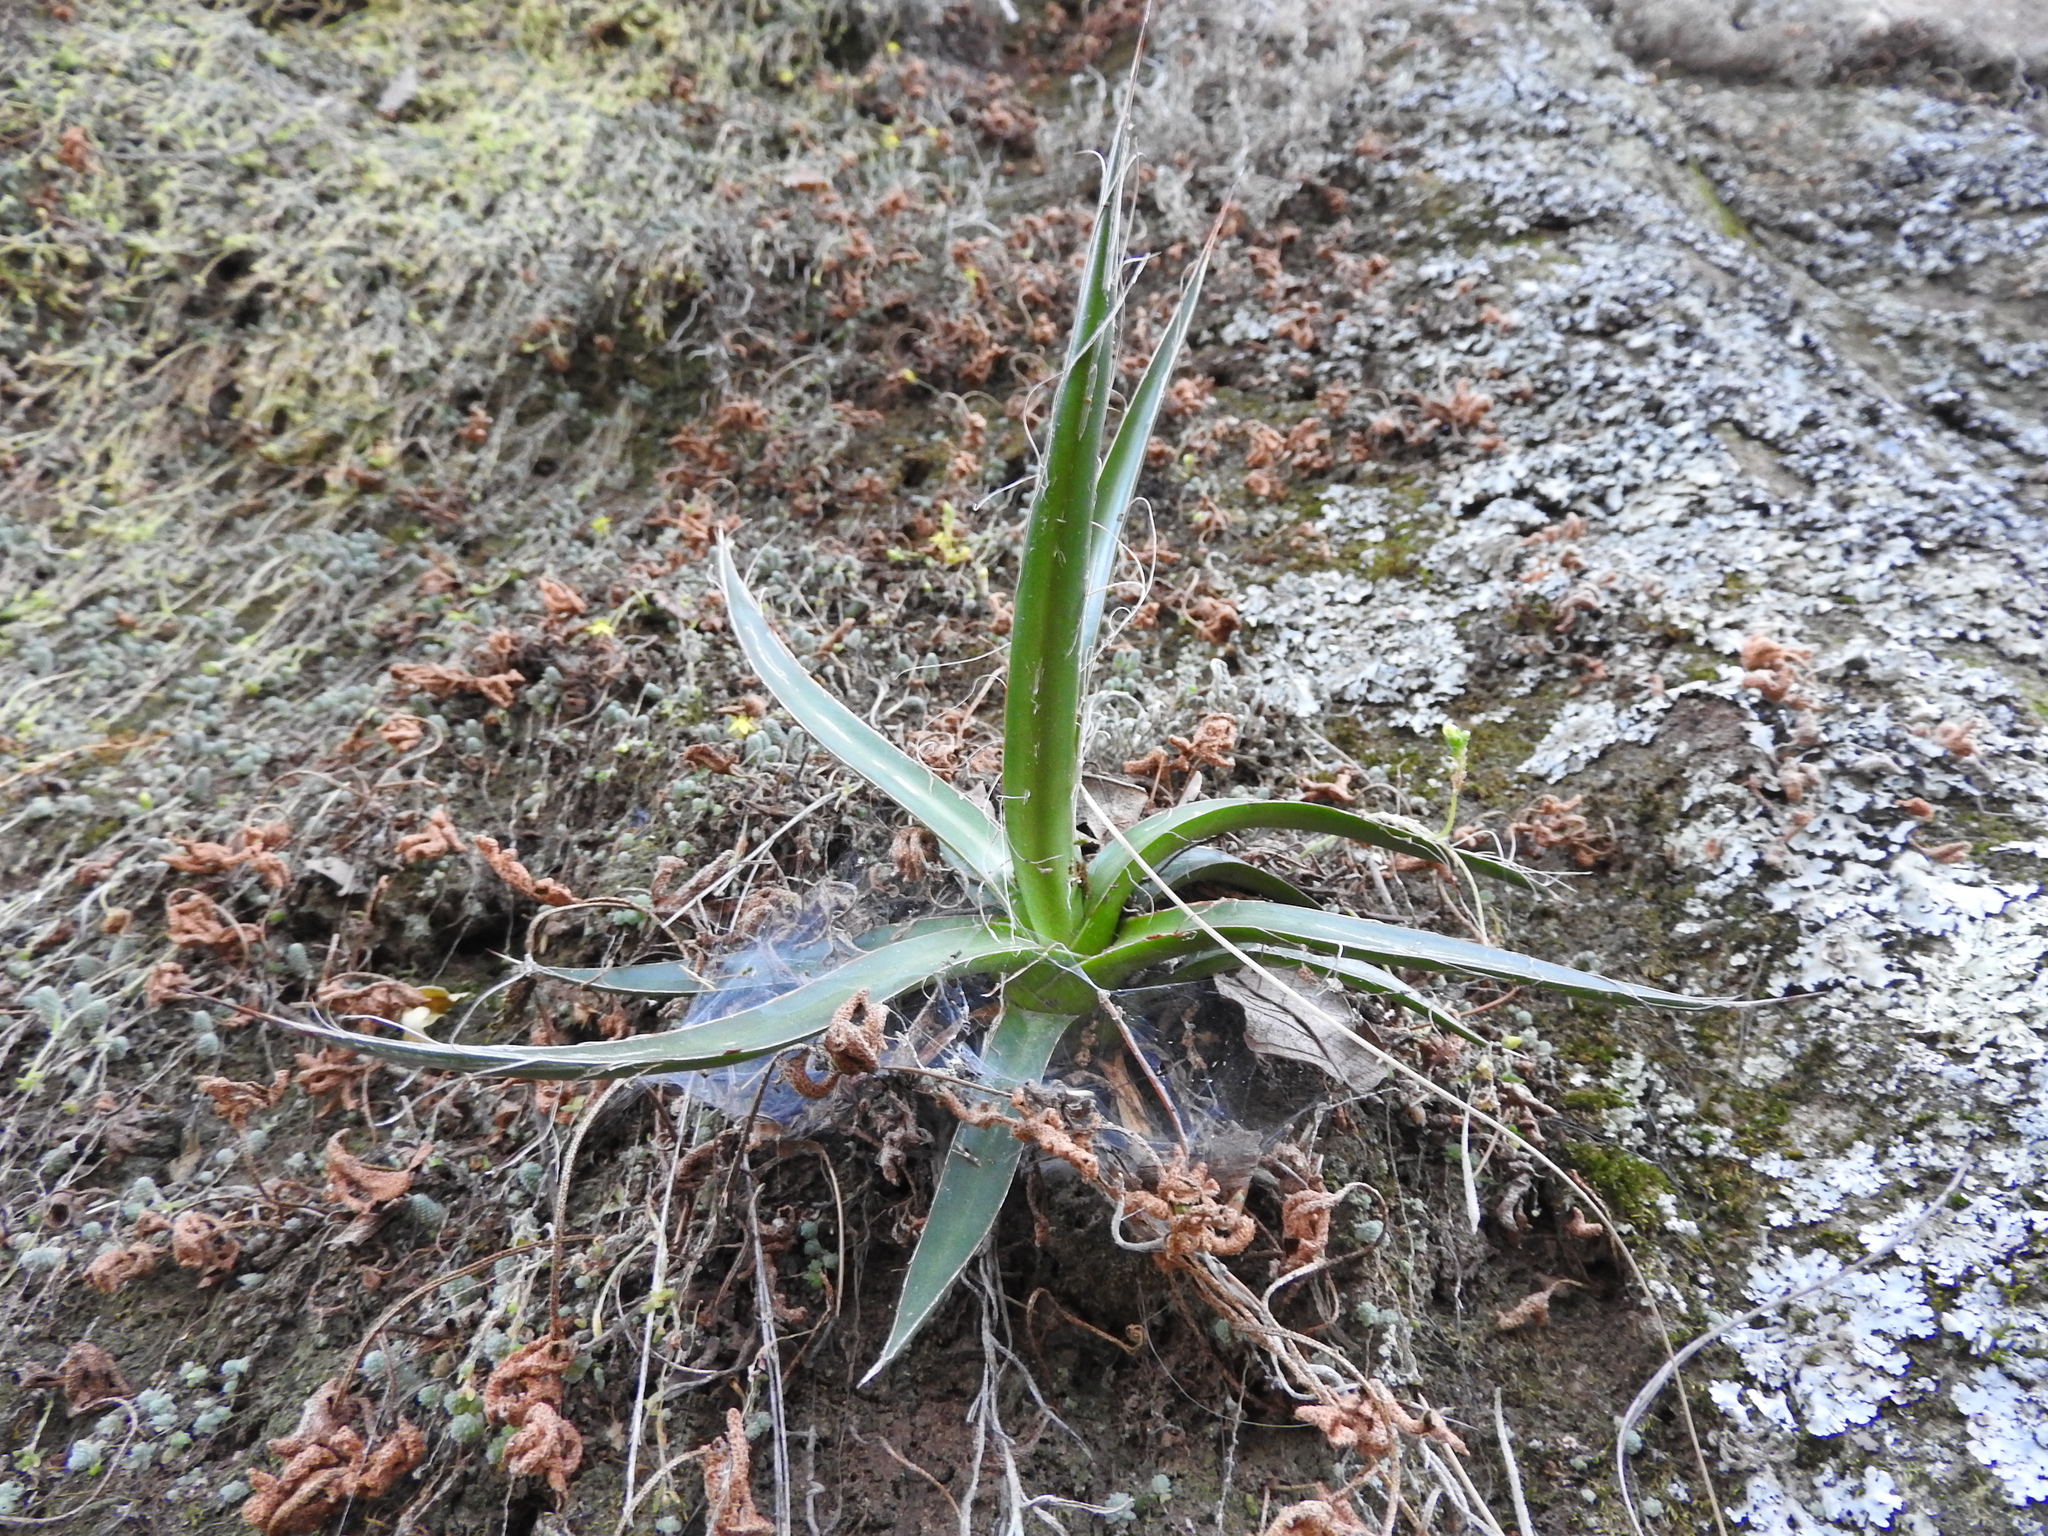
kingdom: Plantae
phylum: Tracheophyta
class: Liliopsida
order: Asparagales
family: Asparagaceae
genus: Agave
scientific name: Agave schidigera
